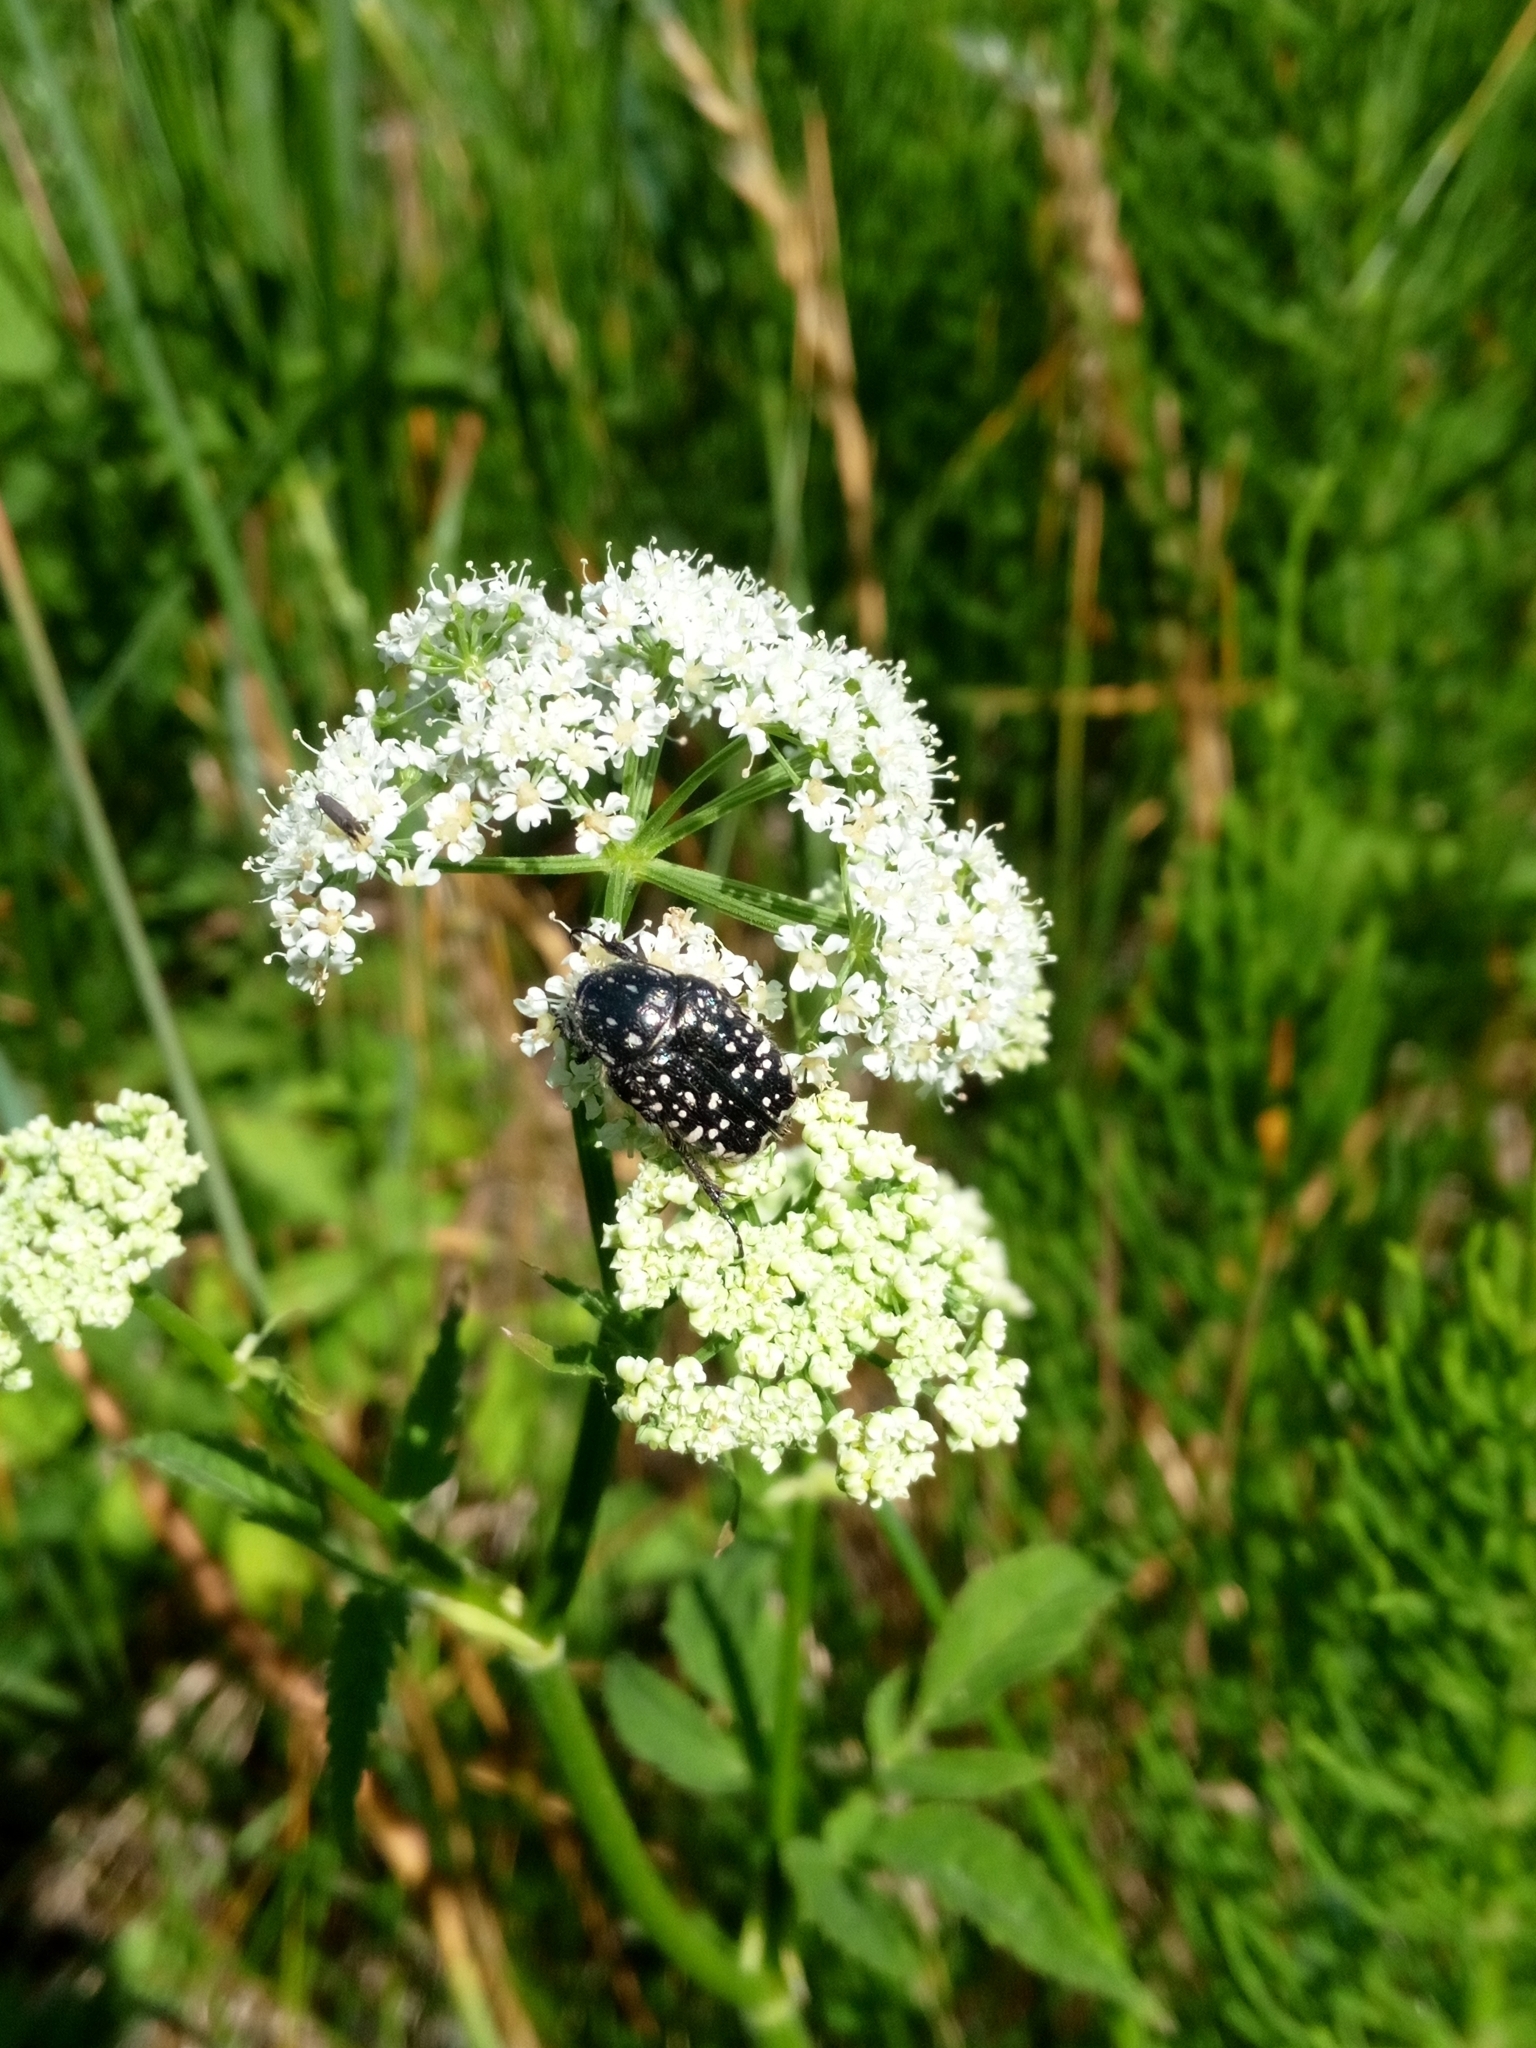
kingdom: Animalia
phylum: Arthropoda
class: Insecta
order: Coleoptera
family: Scarabaeidae
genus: Oxythyrea
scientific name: Oxythyrea funesta
